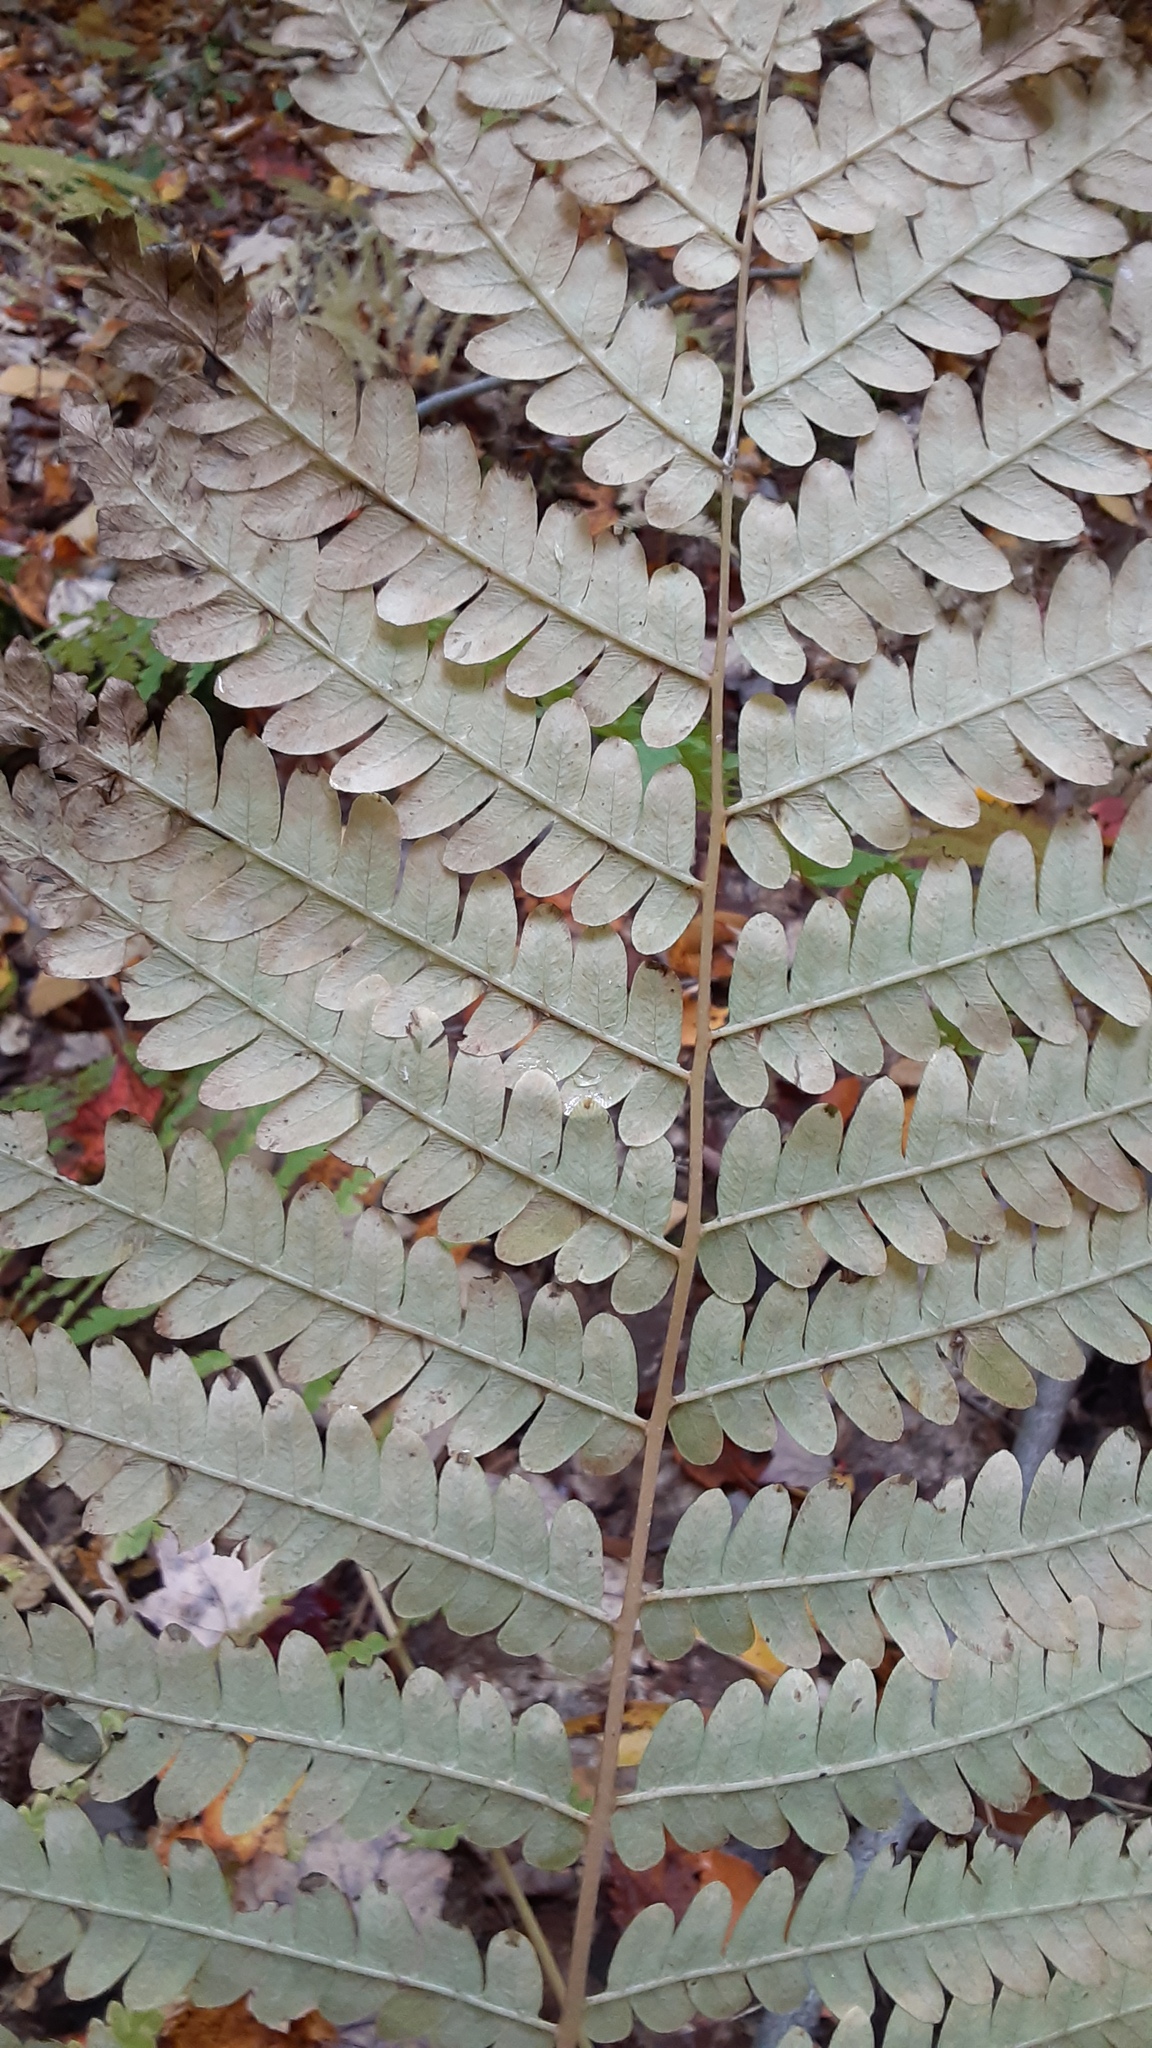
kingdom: Plantae
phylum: Tracheophyta
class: Polypodiopsida
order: Osmundales
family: Osmundaceae
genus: Claytosmunda
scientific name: Claytosmunda claytoniana
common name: Clayton's fern
